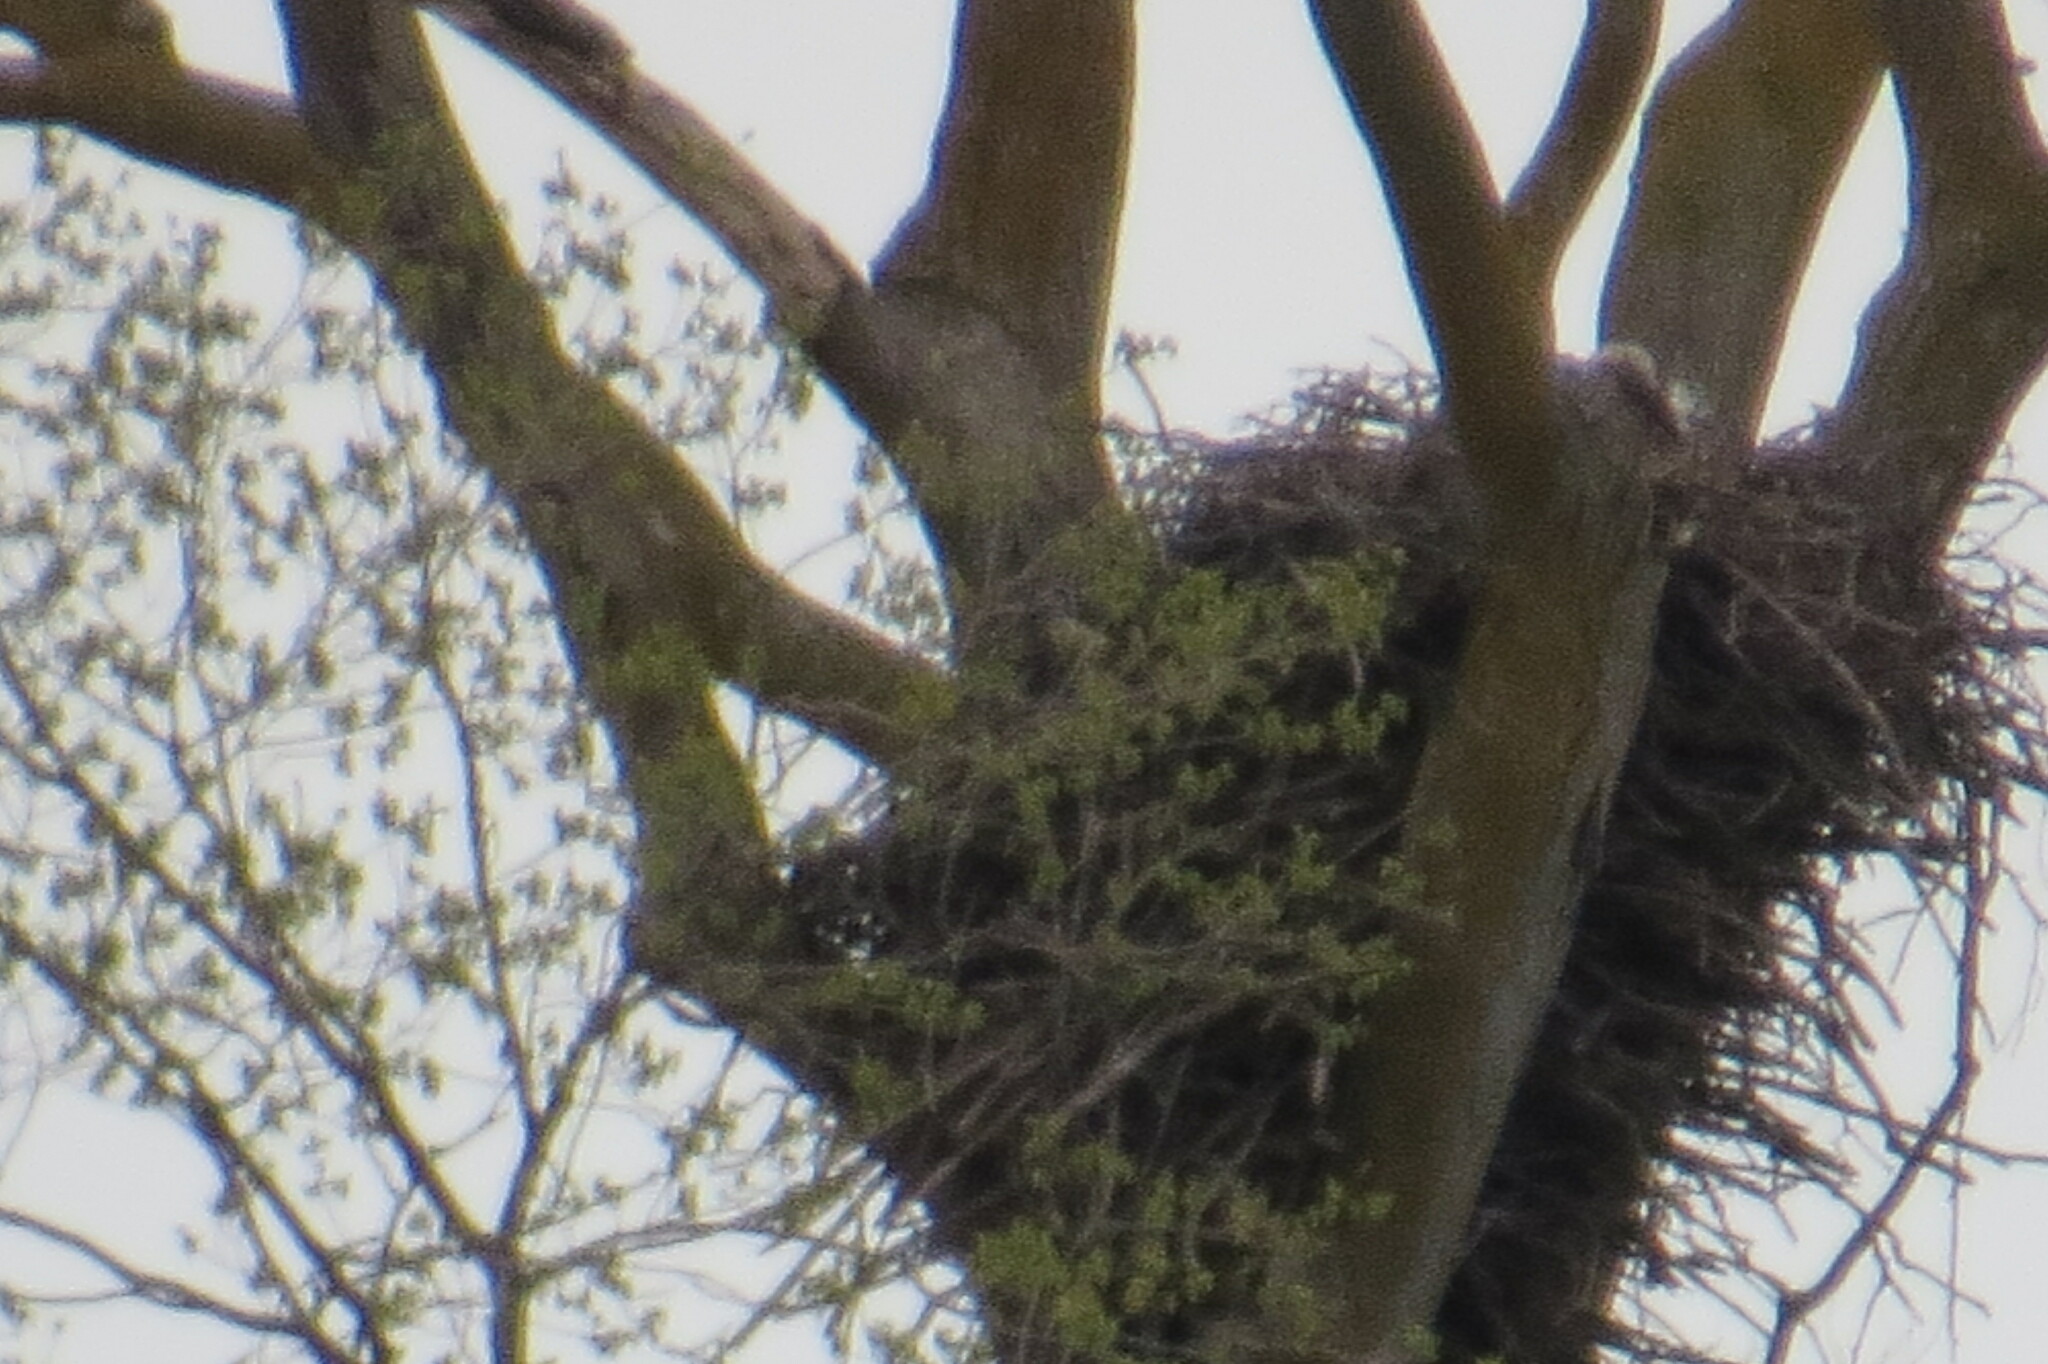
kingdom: Animalia
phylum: Chordata
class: Aves
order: Accipitriformes
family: Accipitridae
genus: Haliaeetus
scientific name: Haliaeetus leucocephalus
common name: Bald eagle
